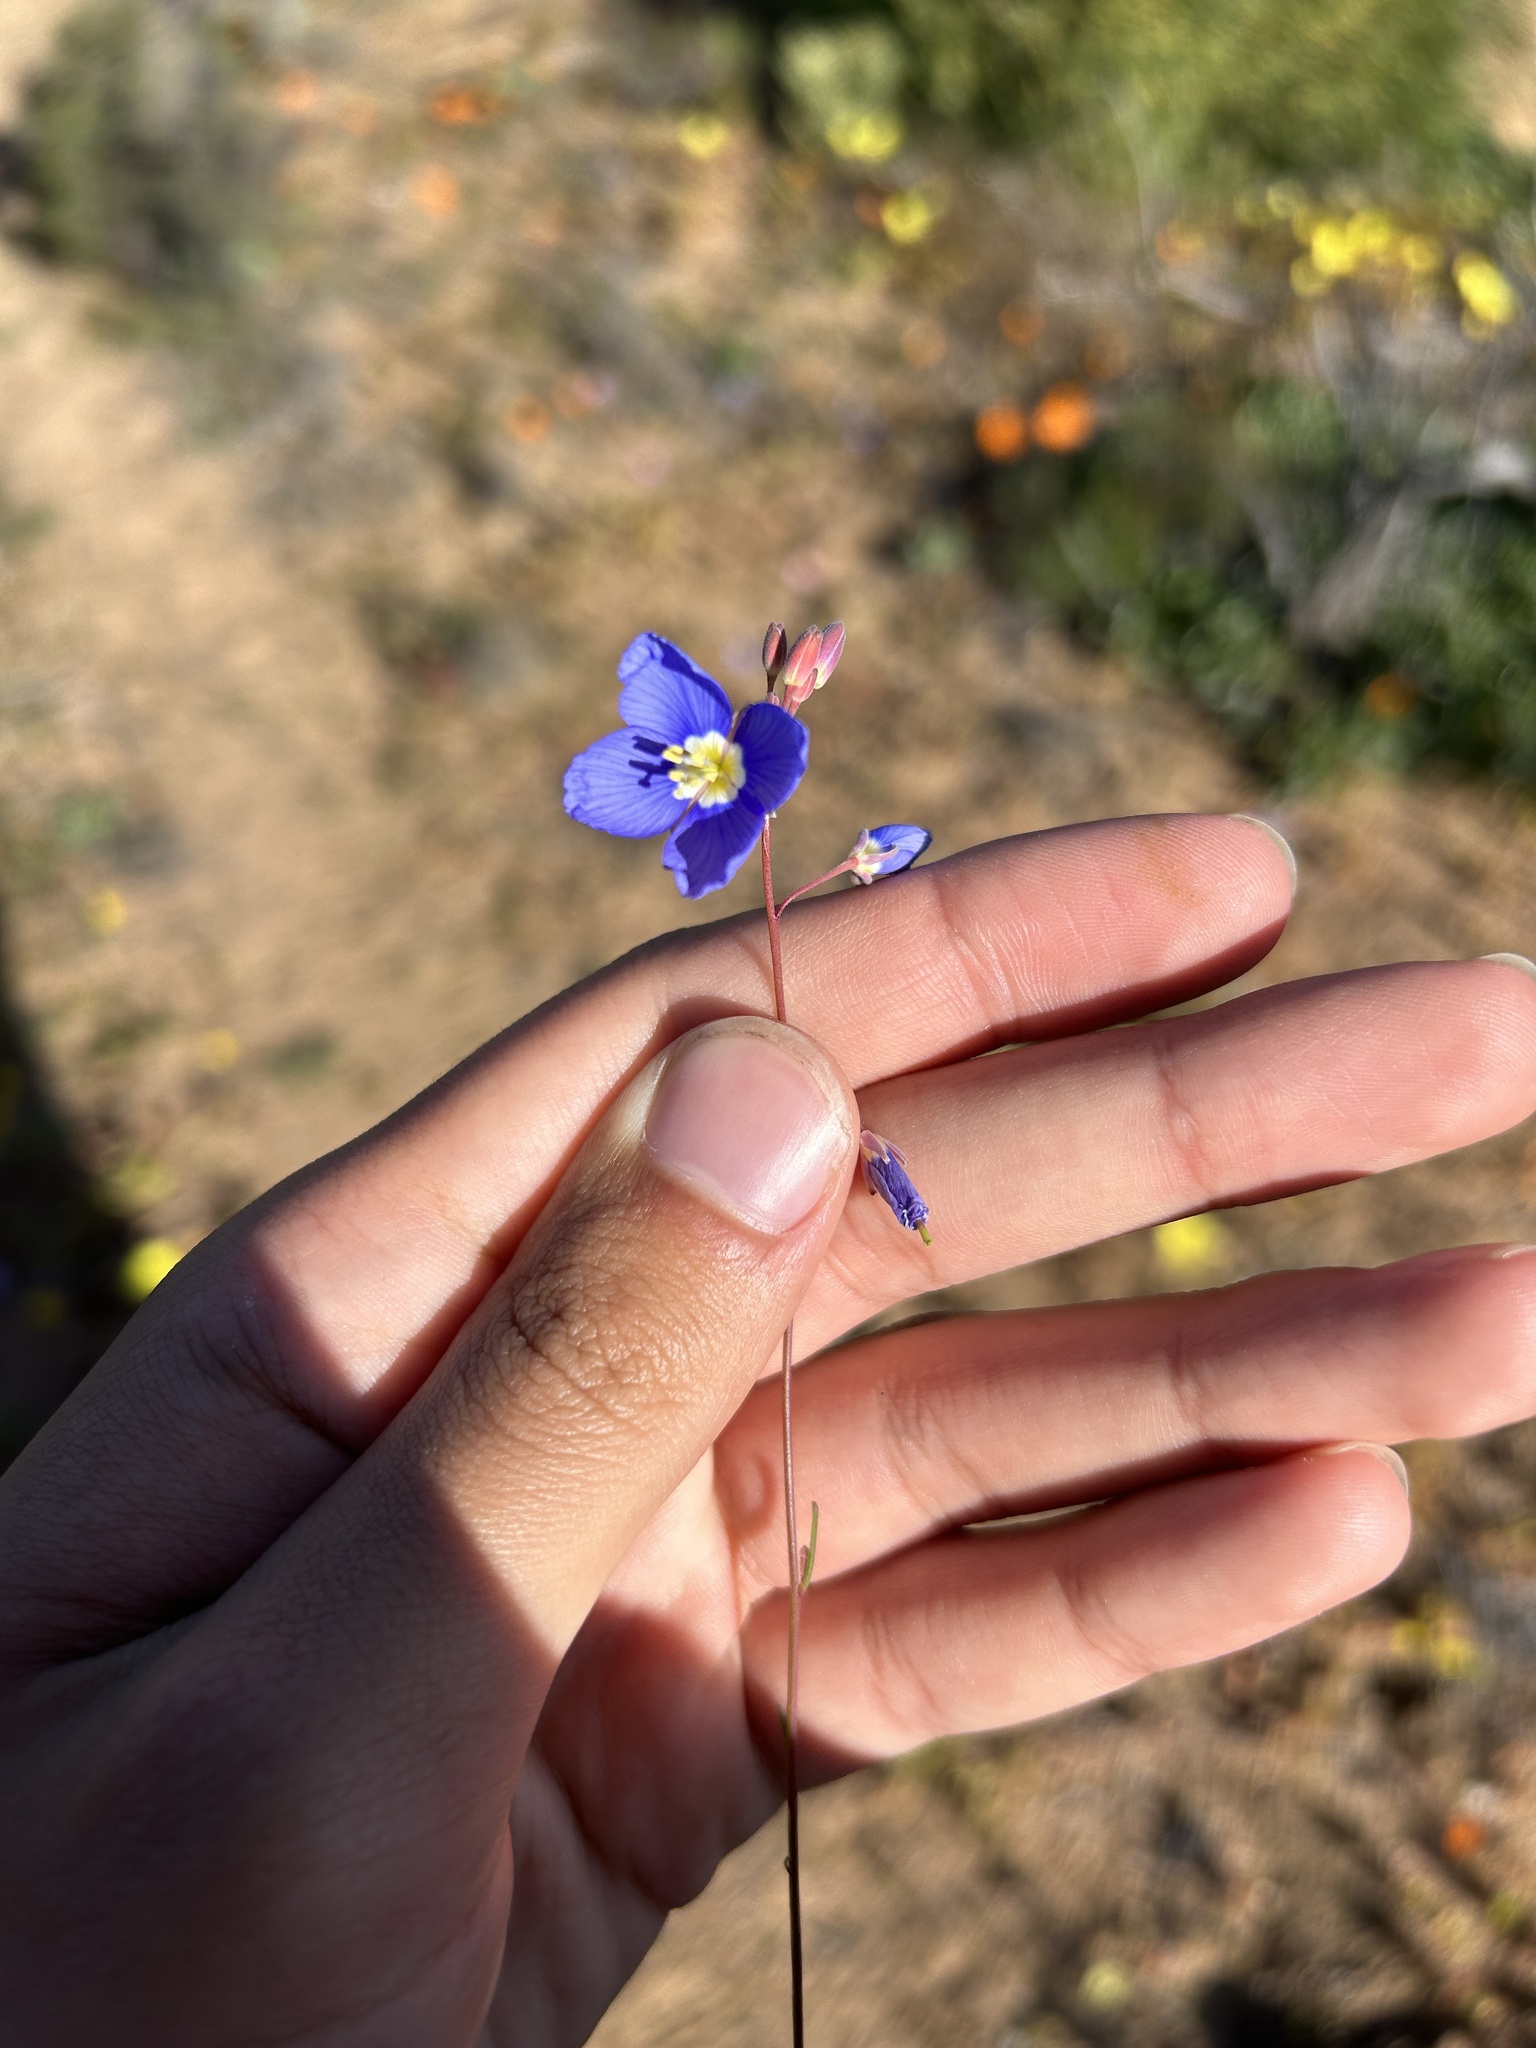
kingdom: Plantae
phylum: Tracheophyta
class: Magnoliopsida
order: Brassicales
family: Brassicaceae
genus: Heliophila
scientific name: Heliophila schulzii
